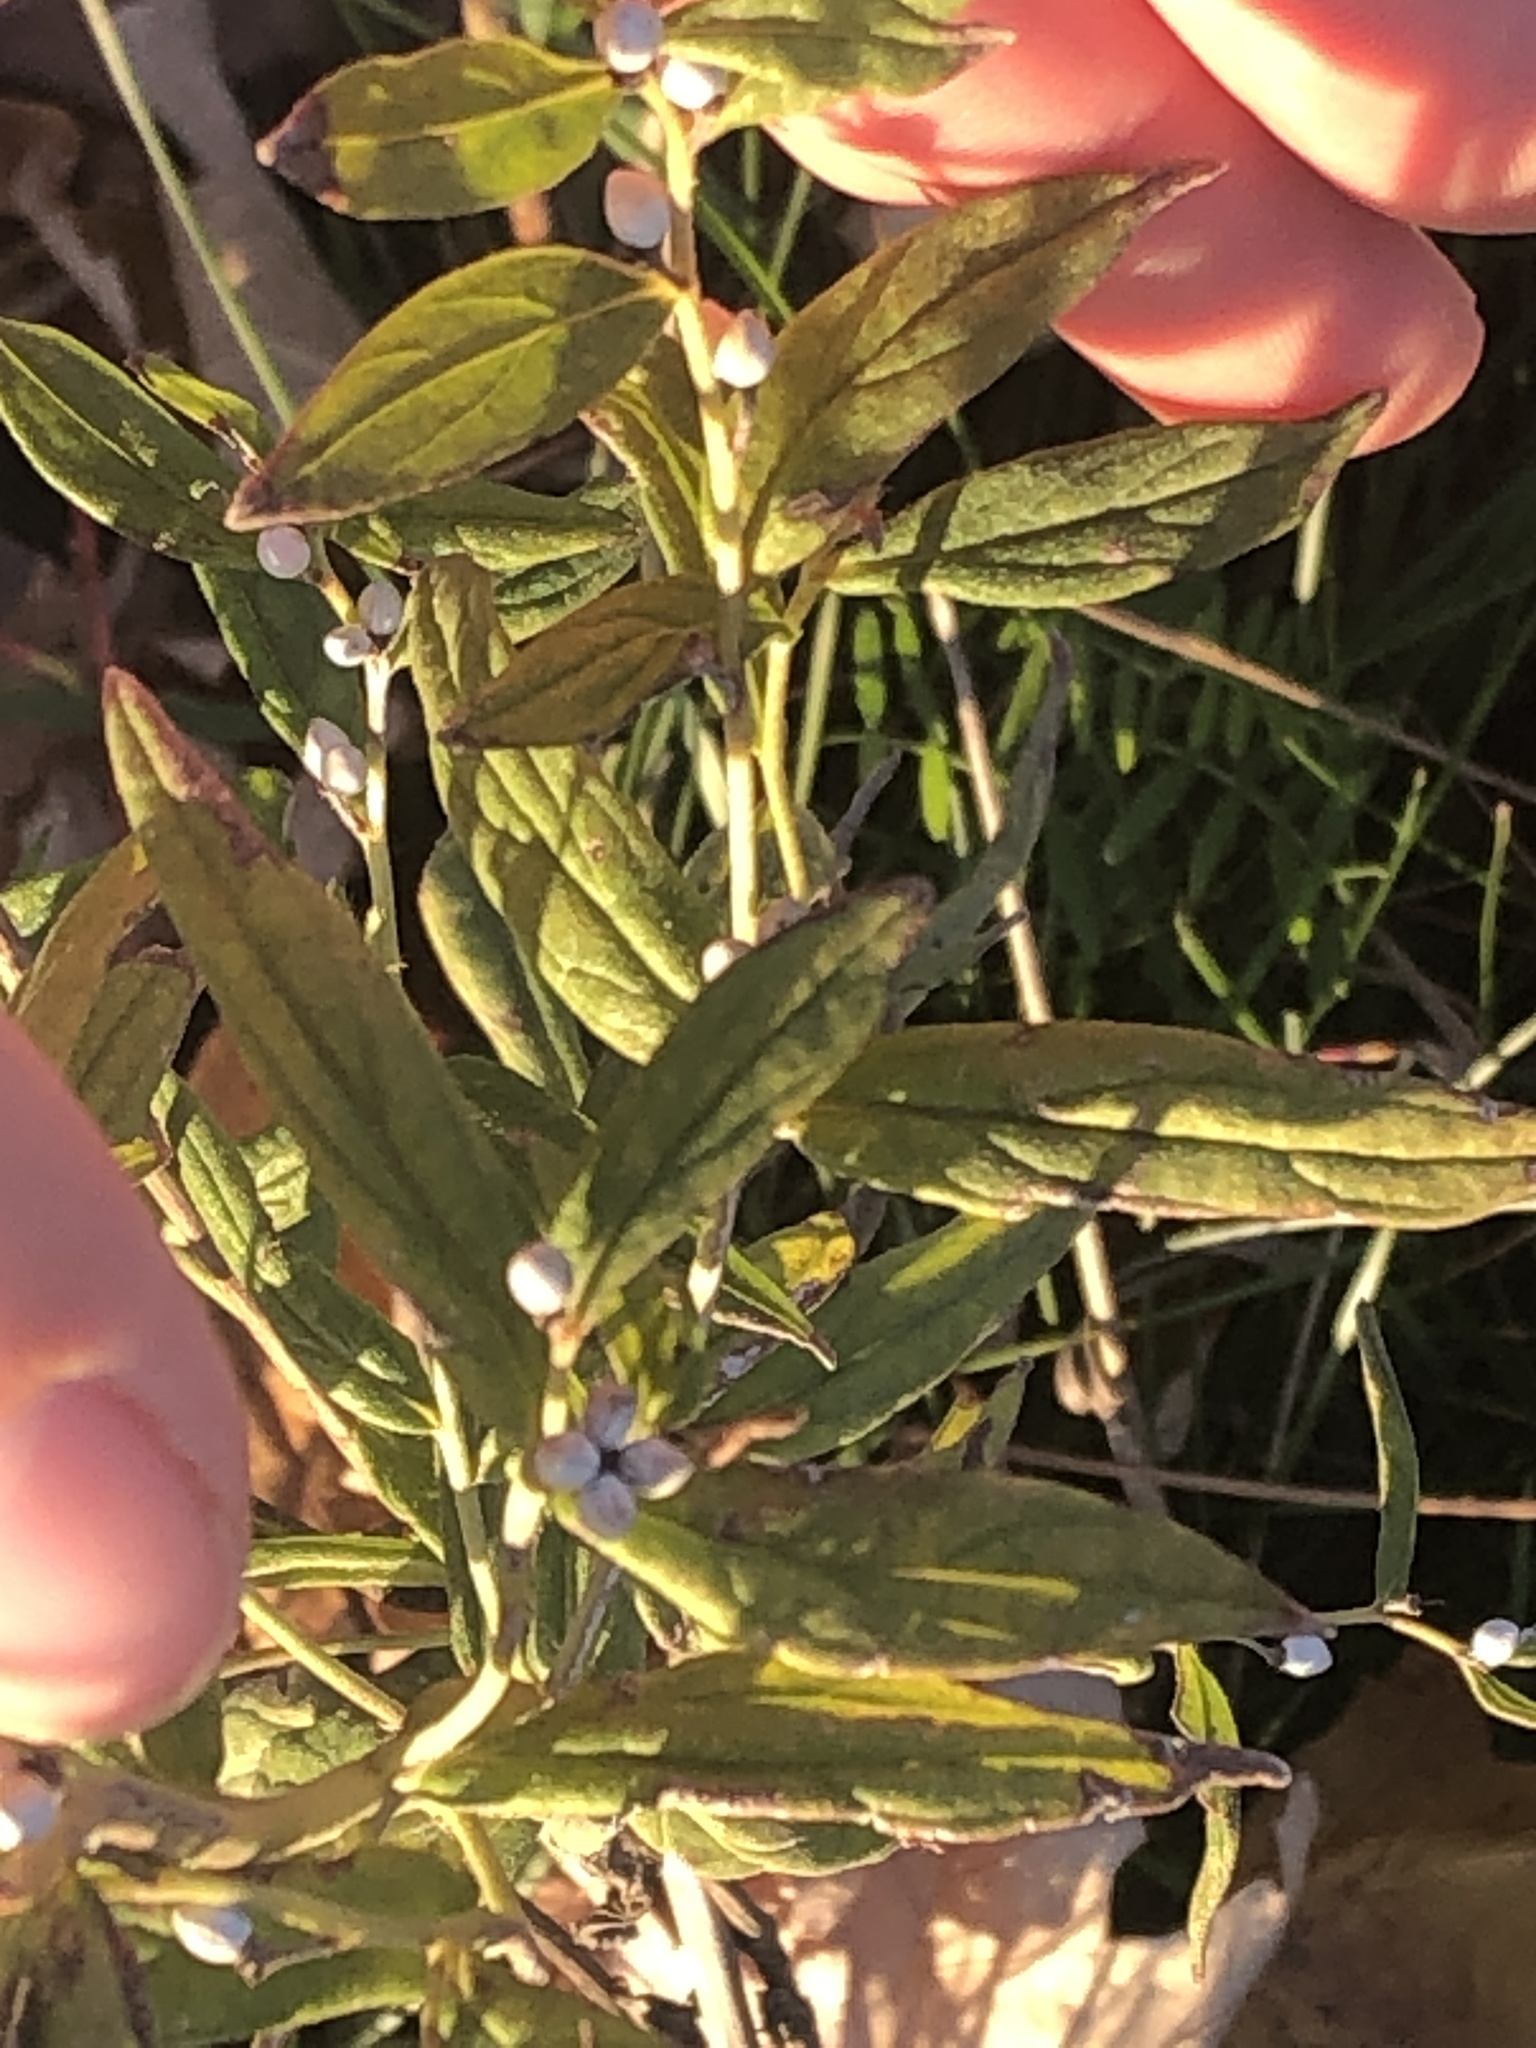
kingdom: Plantae
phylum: Tracheophyta
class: Magnoliopsida
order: Boraginales
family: Boraginaceae
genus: Lithospermum
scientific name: Lithospermum officinale
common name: Common gromwell
